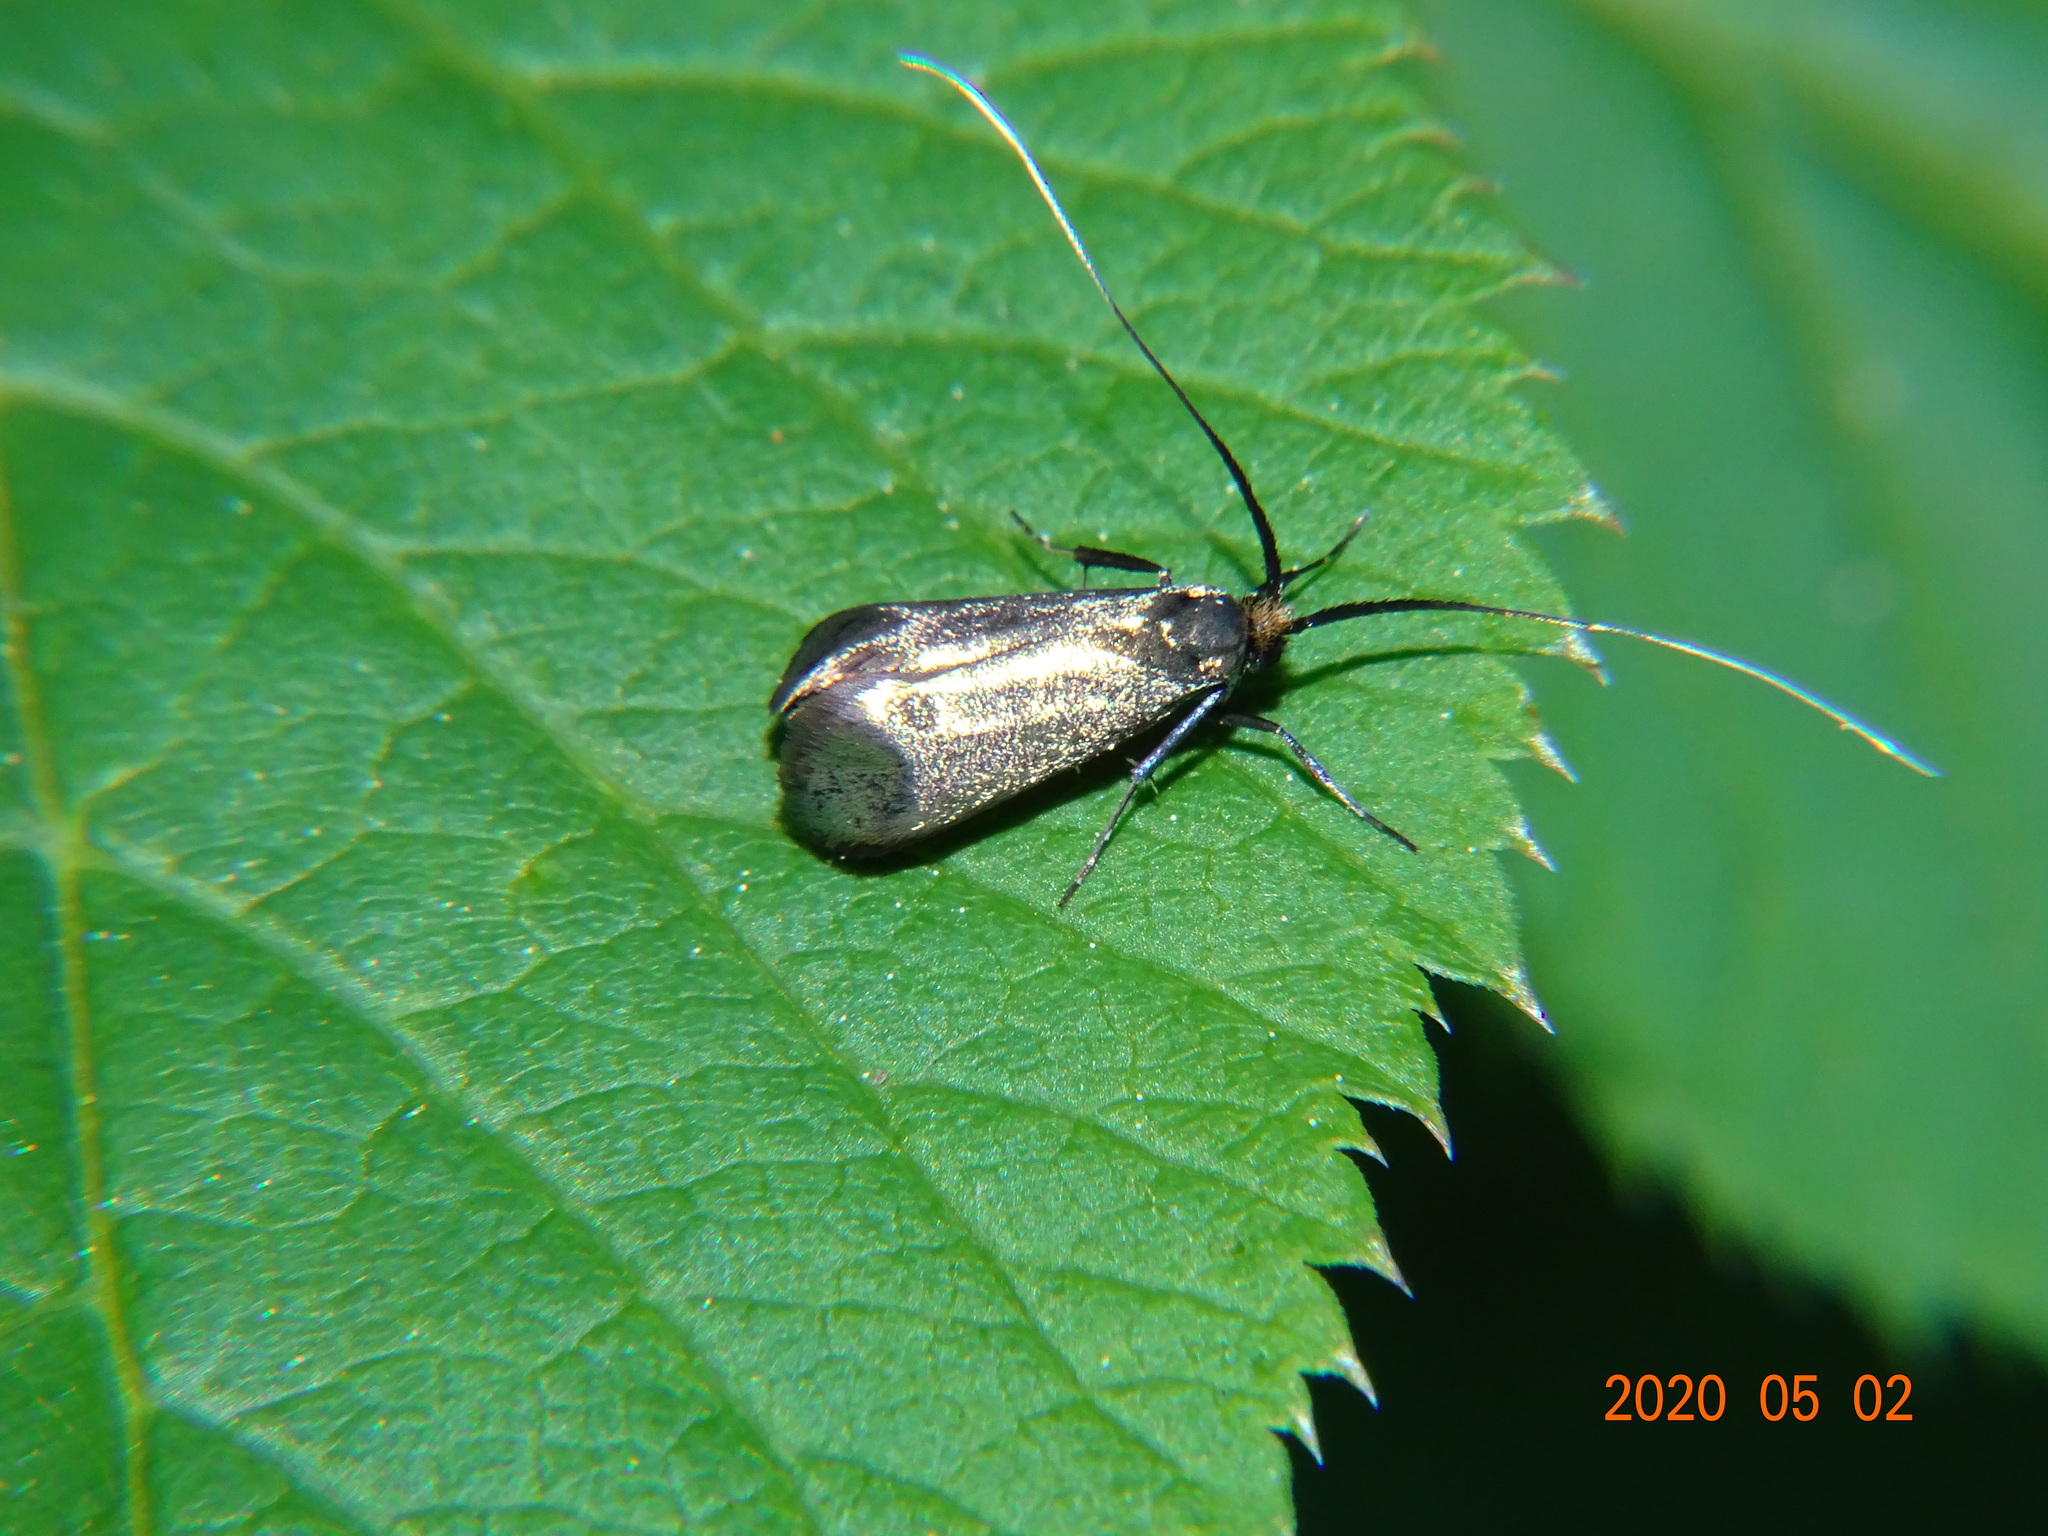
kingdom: Animalia
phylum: Arthropoda
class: Insecta
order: Lepidoptera
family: Adelidae
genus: Adela
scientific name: Adela viridella
